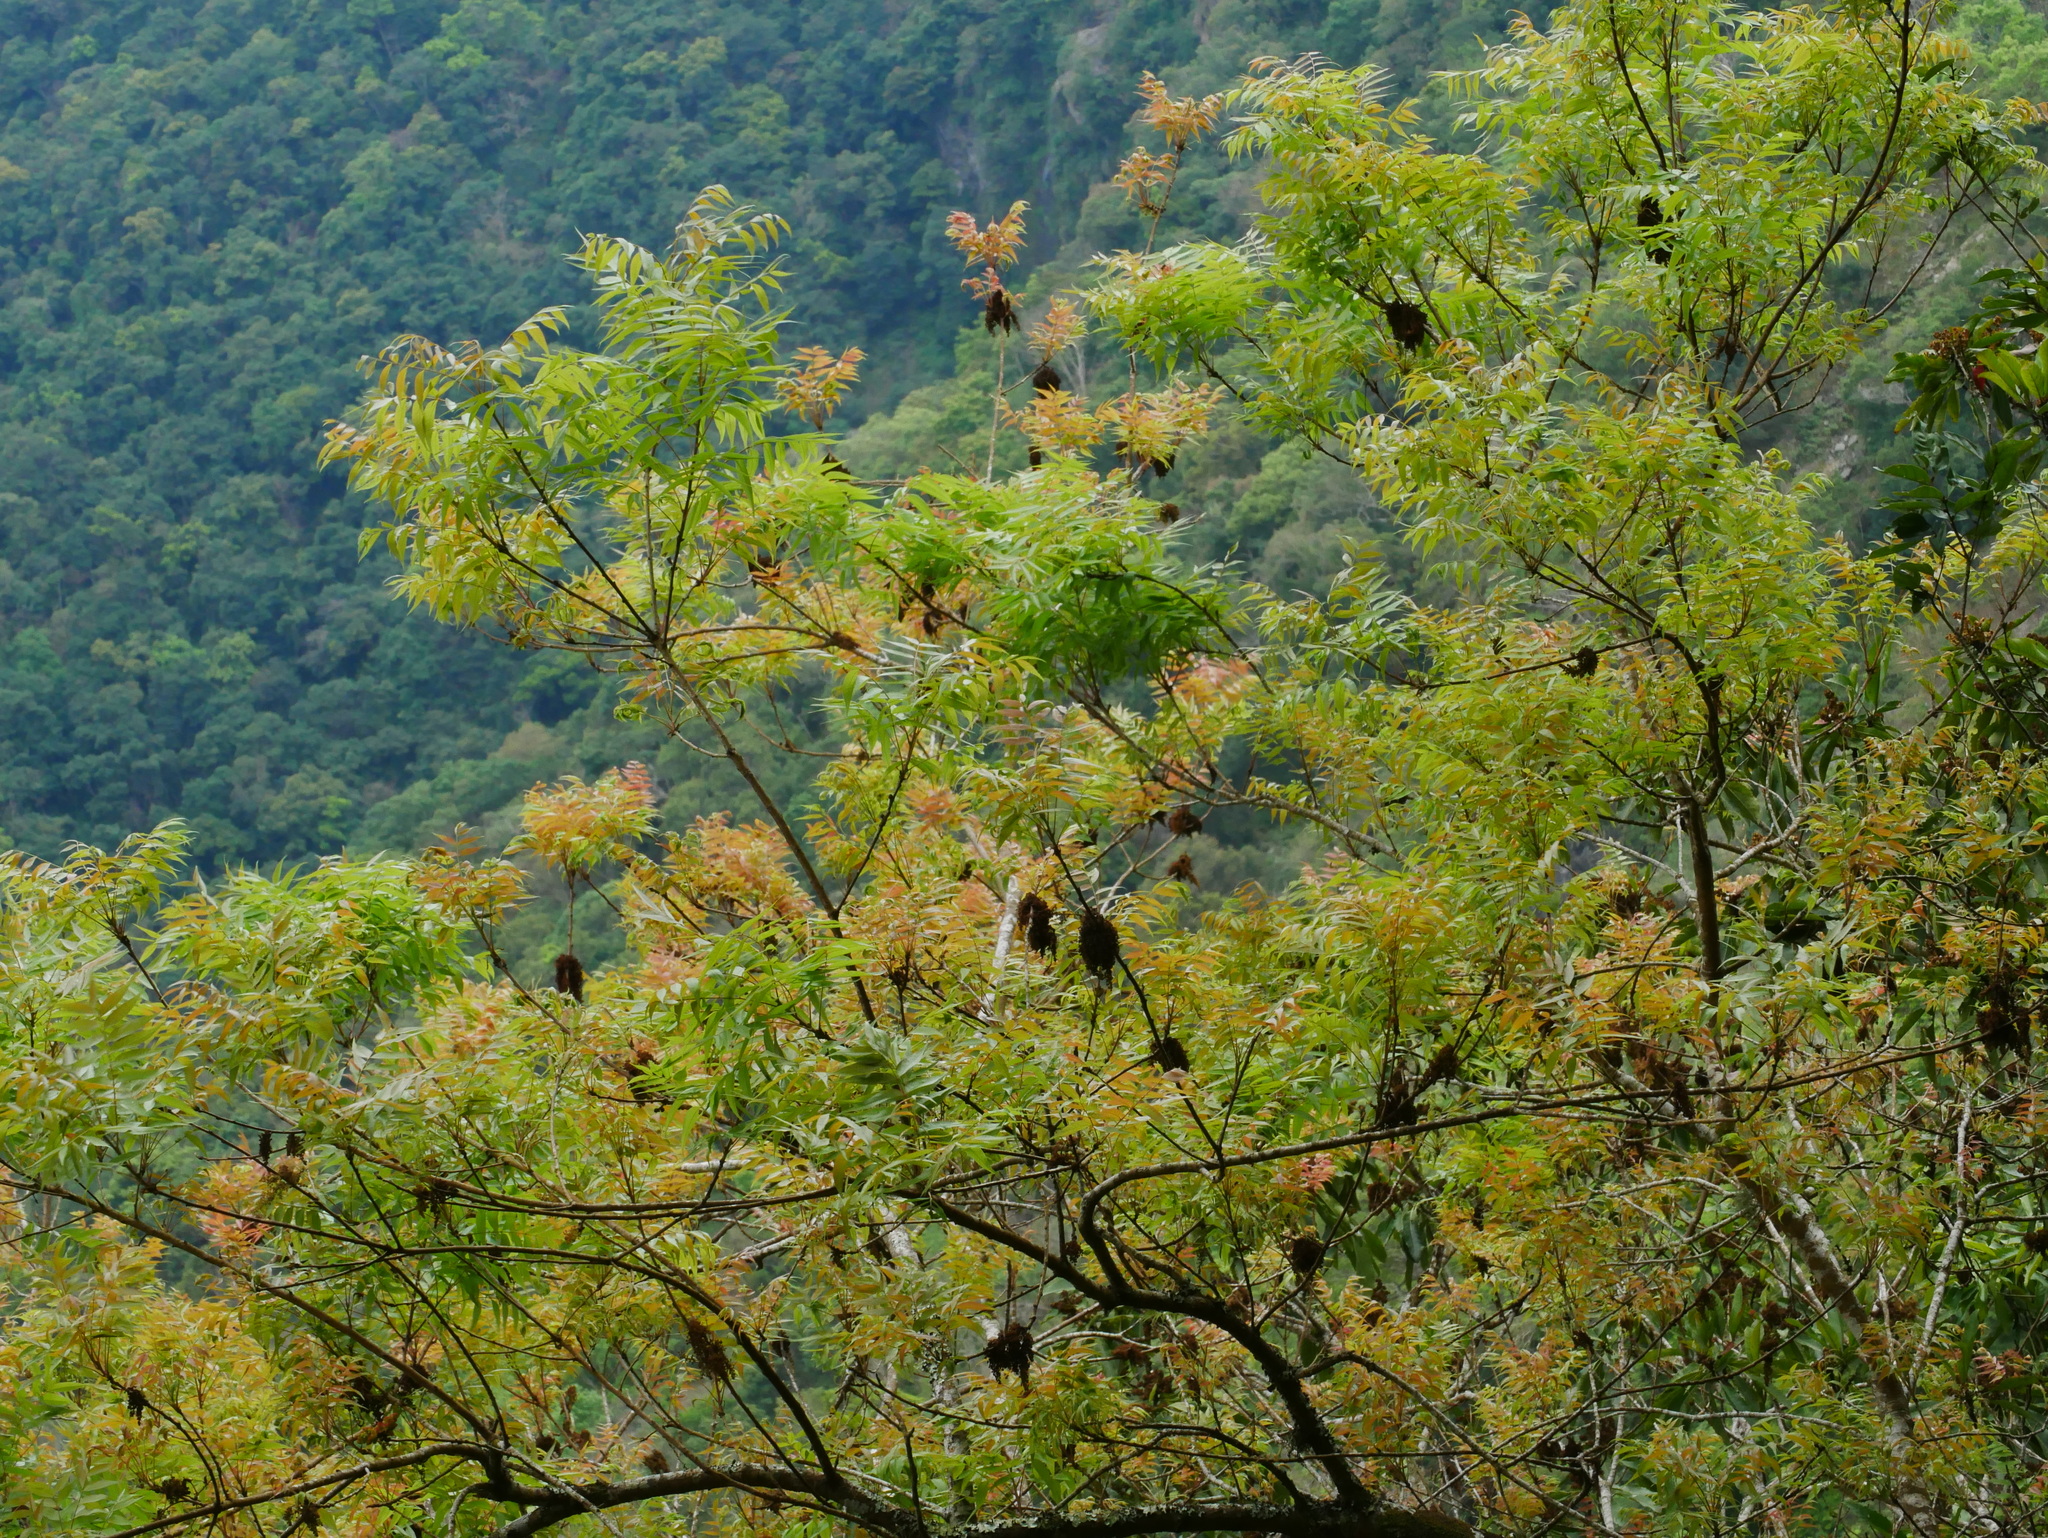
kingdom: Plantae
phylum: Tracheophyta
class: Magnoliopsida
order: Sapindales
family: Anacardiaceae
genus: Pistacia
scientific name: Pistacia chinensis
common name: Chinese pistache
